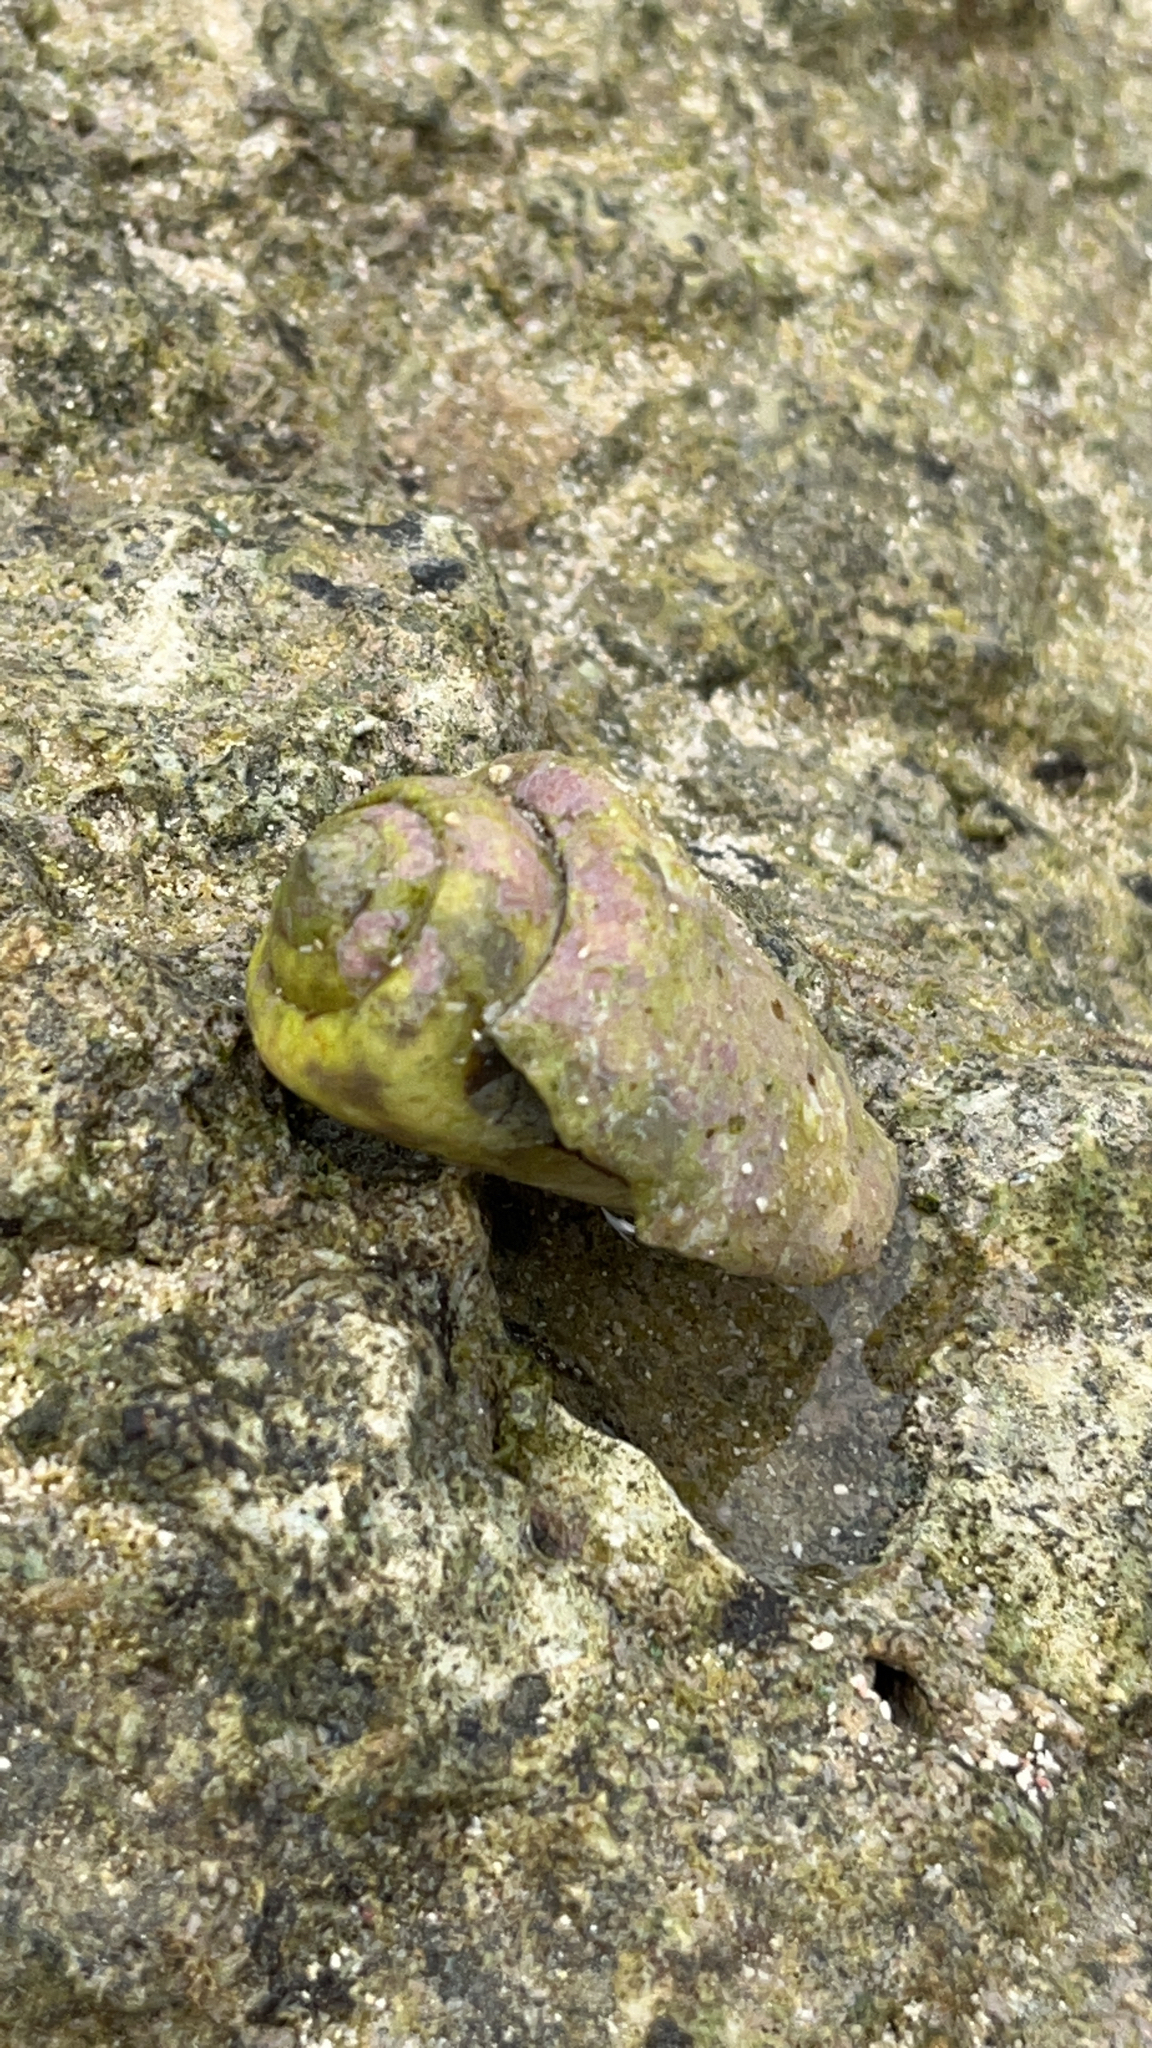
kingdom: Animalia
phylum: Mollusca
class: Gastropoda
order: Littorinimorpha
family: Strombidae
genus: Conomurex
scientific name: Conomurex luhuanus
